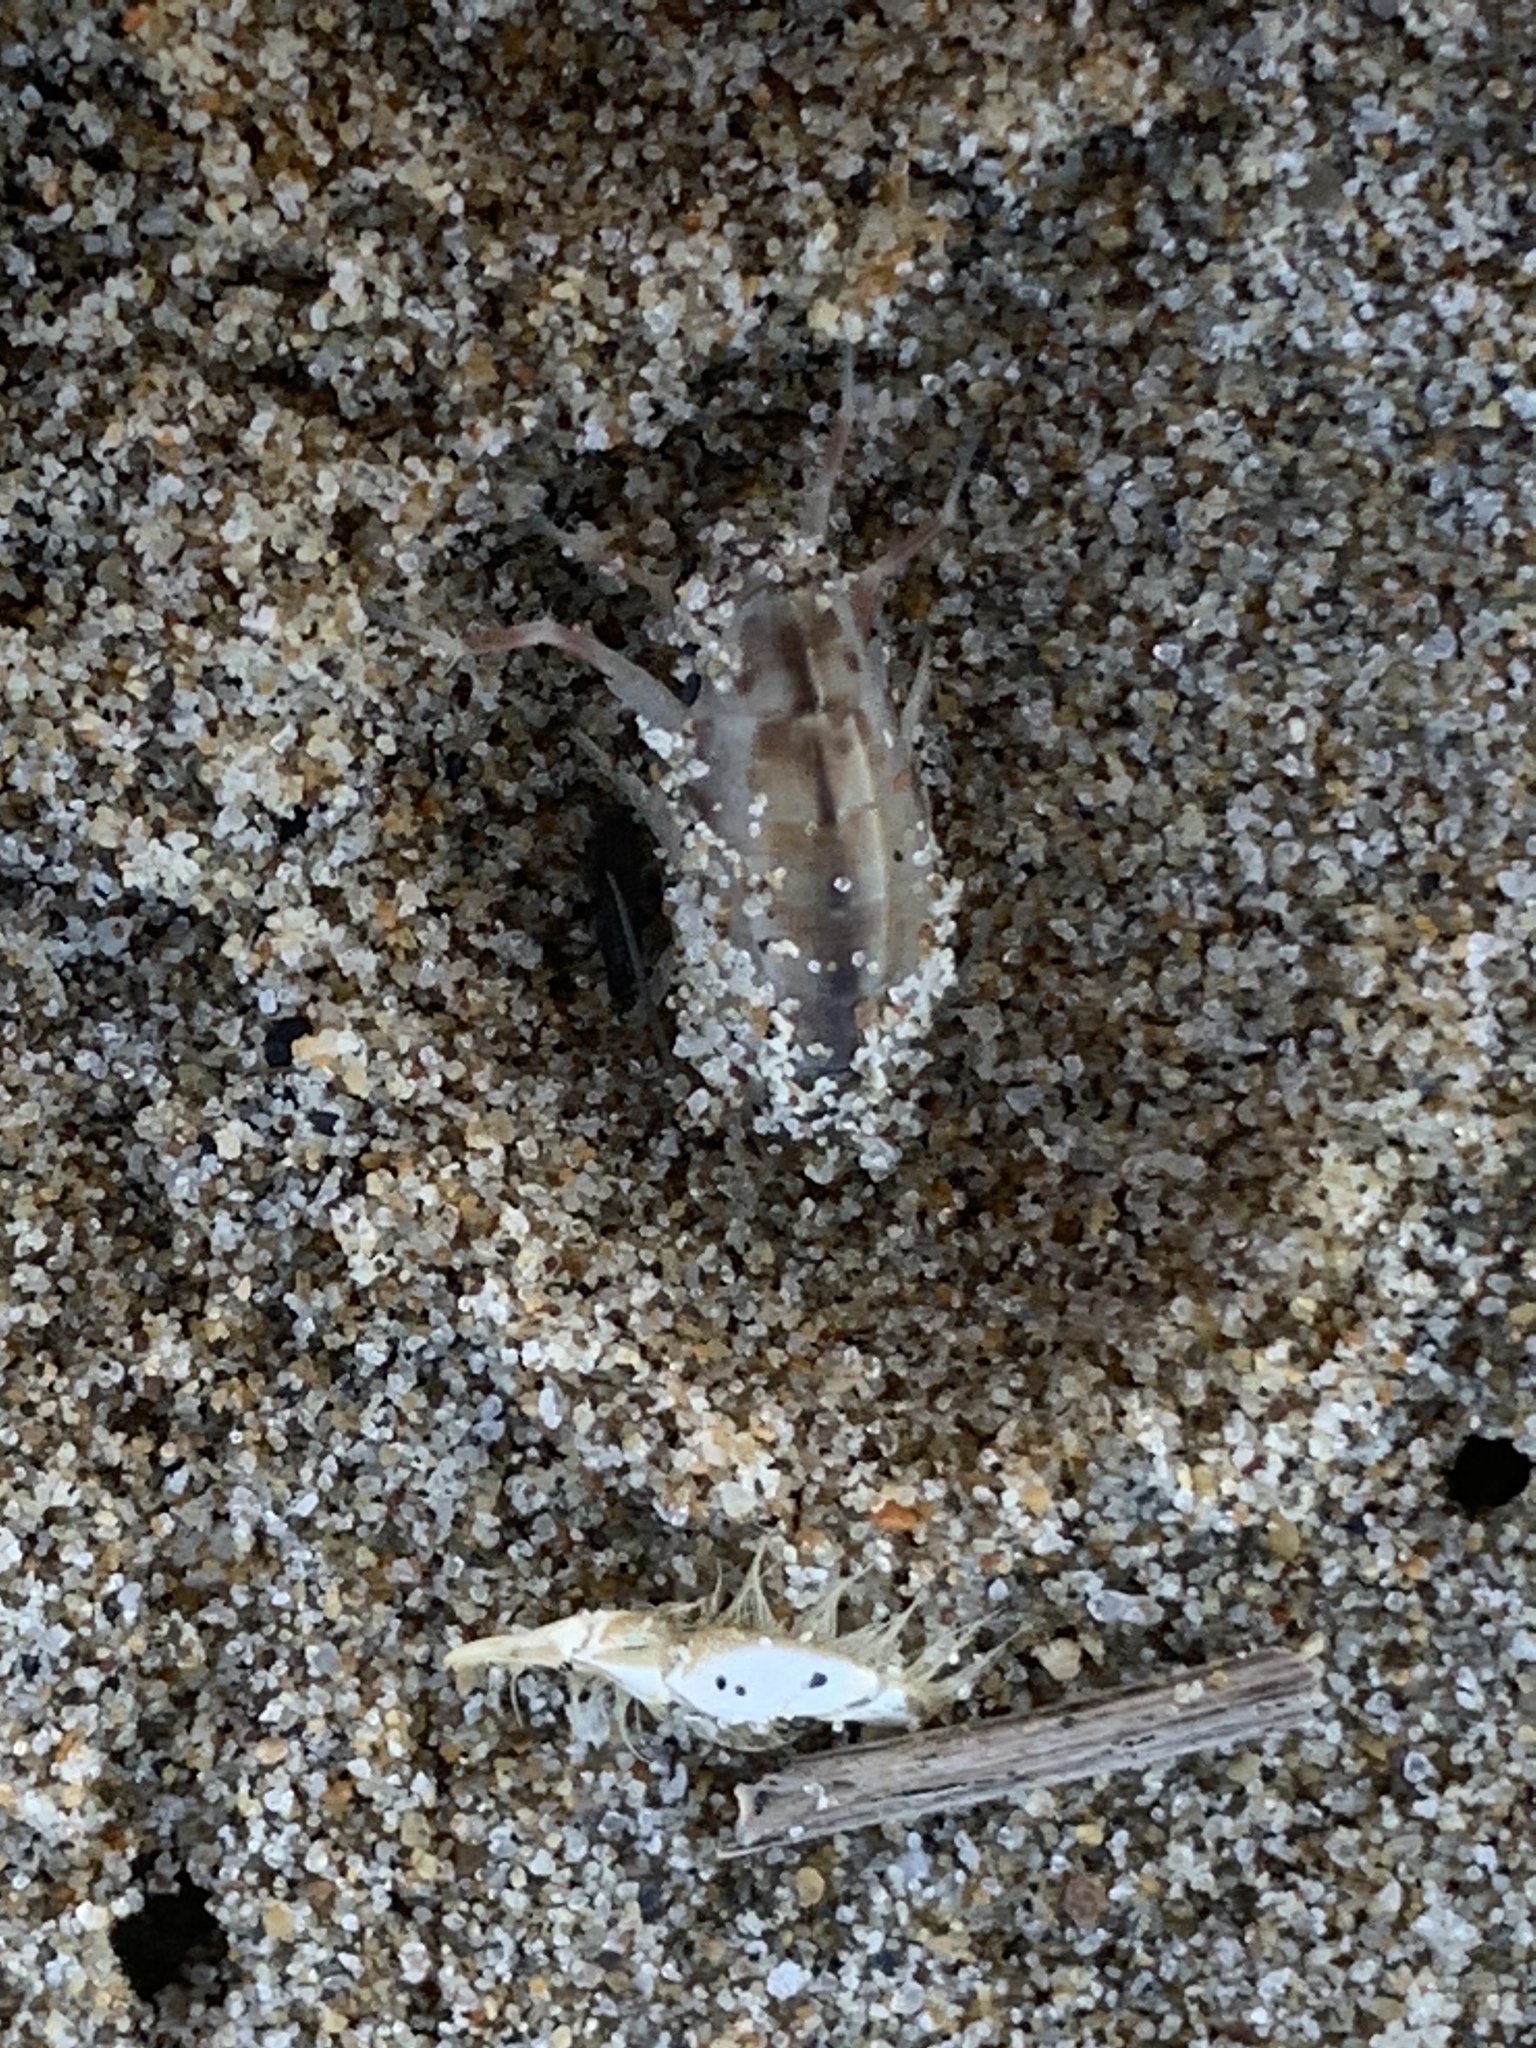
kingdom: Animalia
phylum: Arthropoda
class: Malacostraca
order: Amphipoda
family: Talitridae
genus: Megalorchestia
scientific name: Megalorchestia californiana
